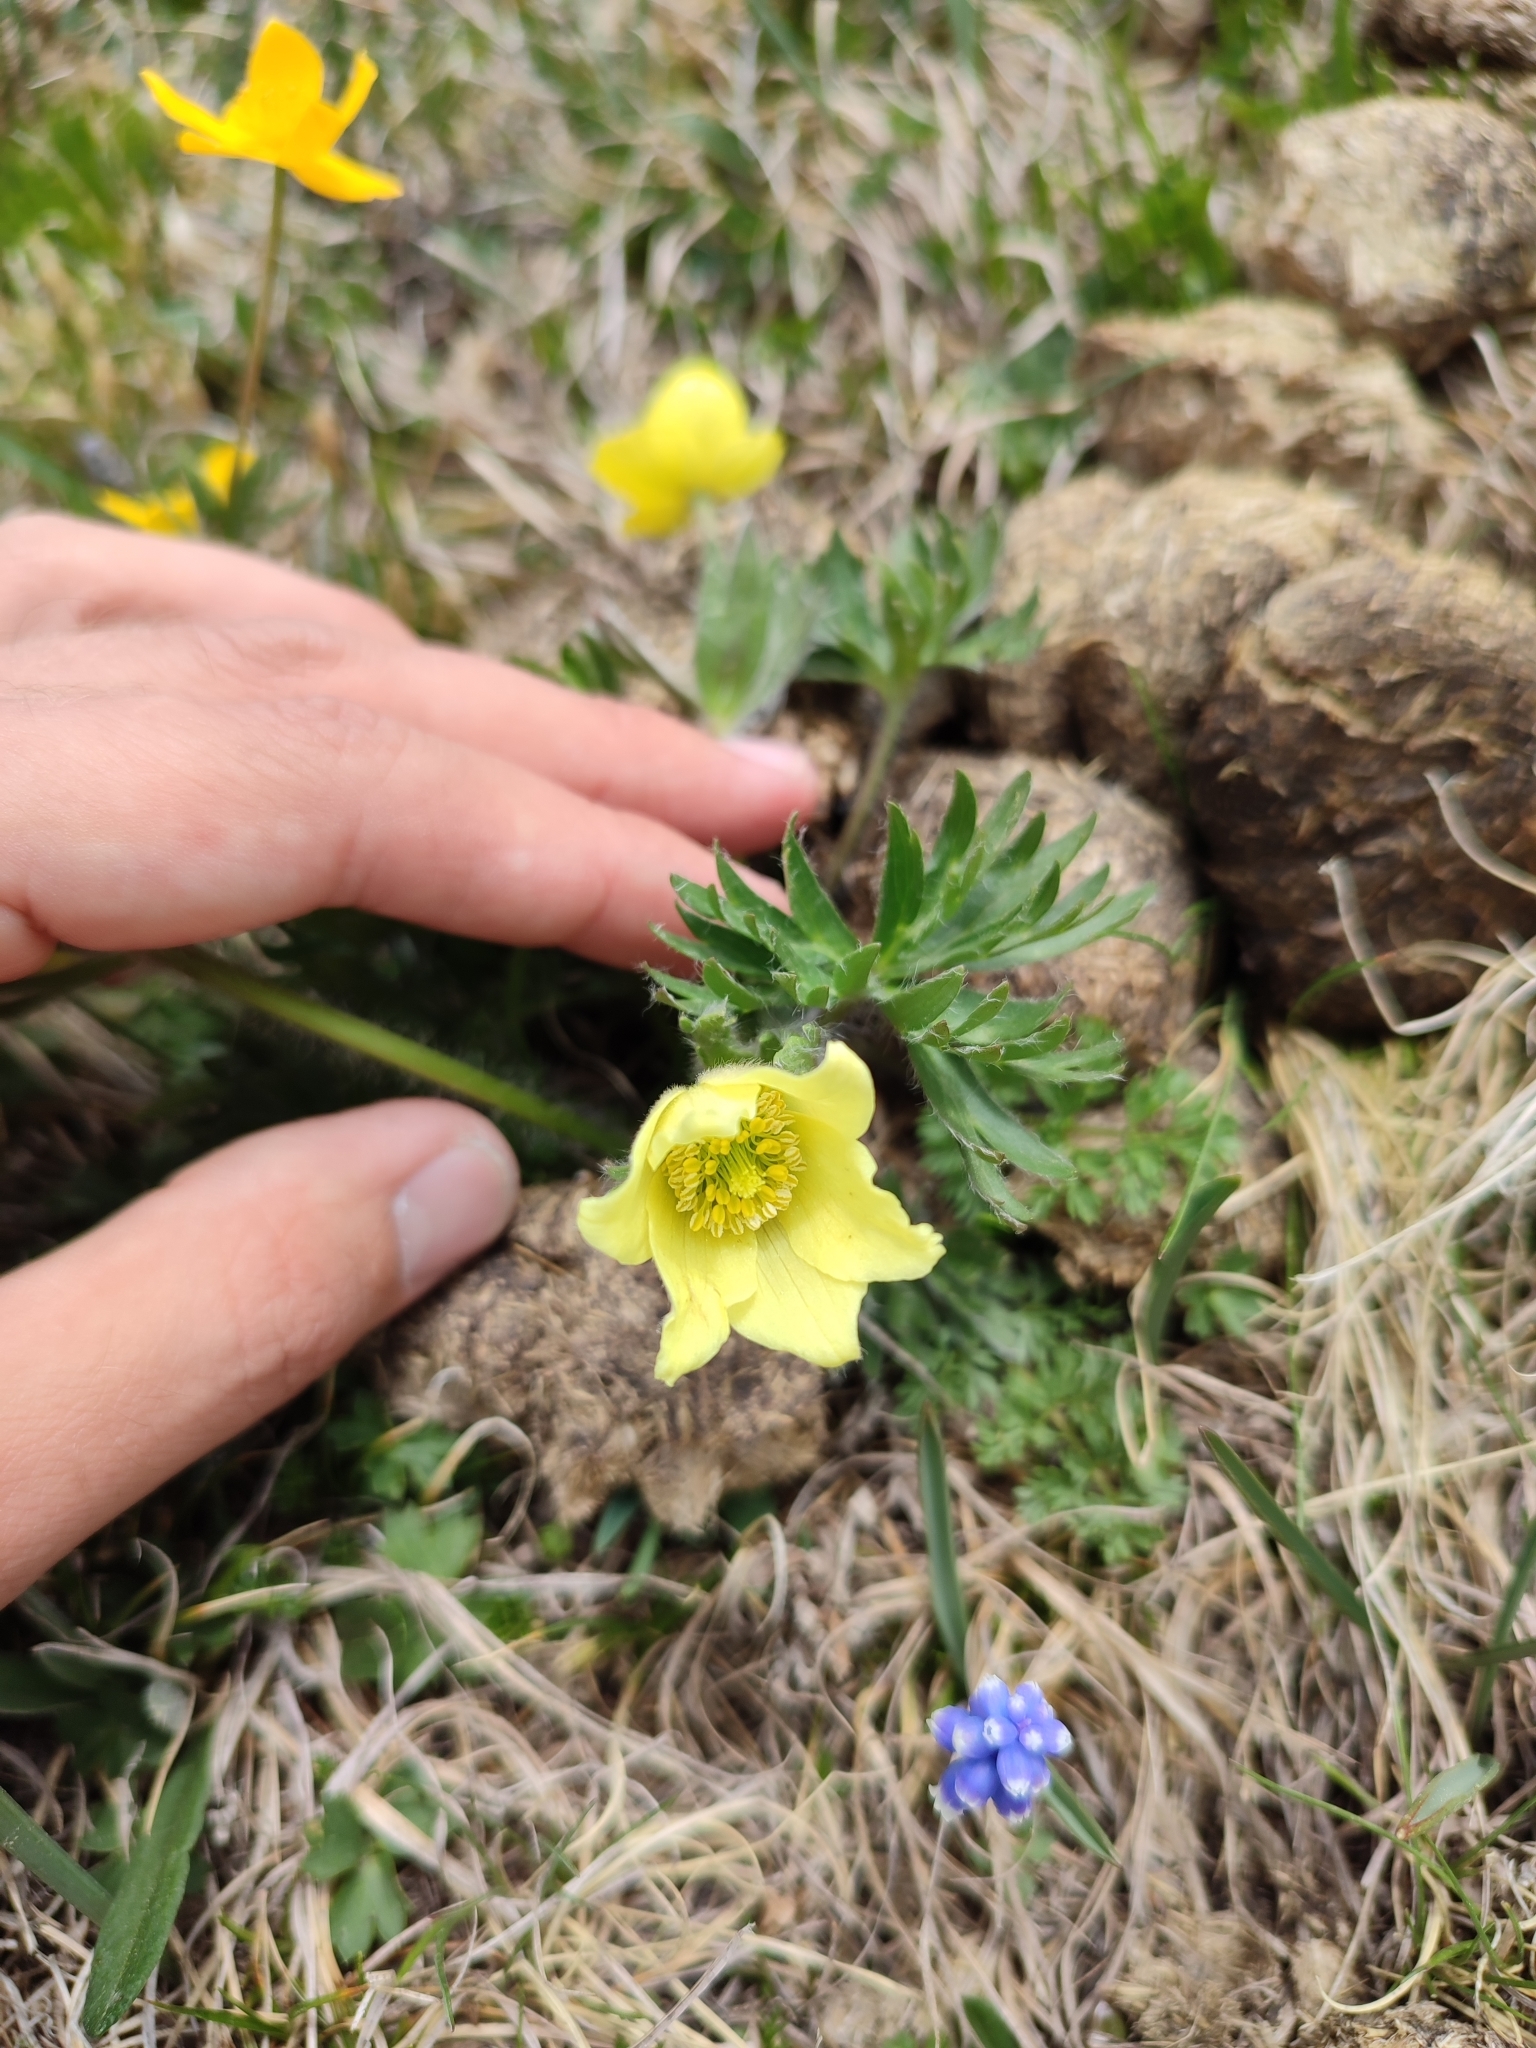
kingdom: Plantae
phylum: Tracheophyta
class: Magnoliopsida
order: Ranunculales
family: Ranunculaceae
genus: Pulsatilla
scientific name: Pulsatilla albana
